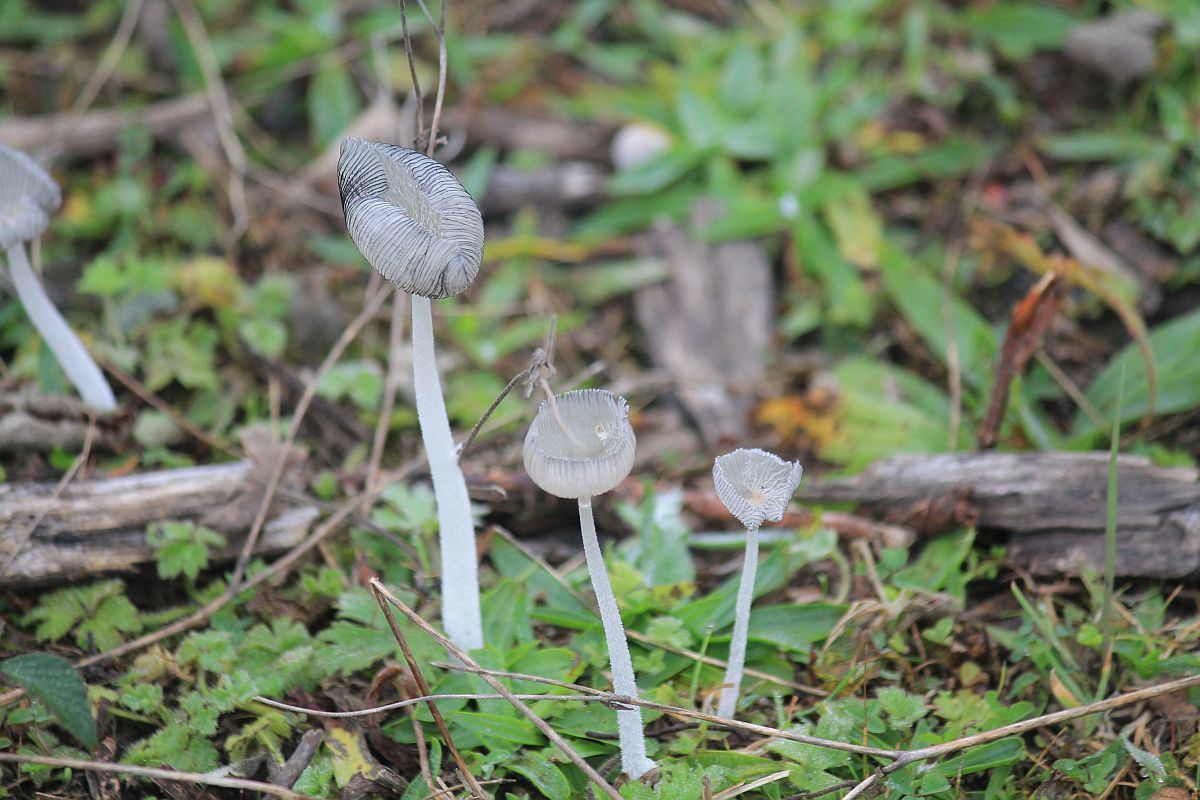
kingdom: Fungi
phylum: Basidiomycota
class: Agaricomycetes
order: Agaricales
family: Psathyrellaceae
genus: Coprinopsis
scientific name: Coprinopsis lagopus
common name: Hare'sfoot inkcap
